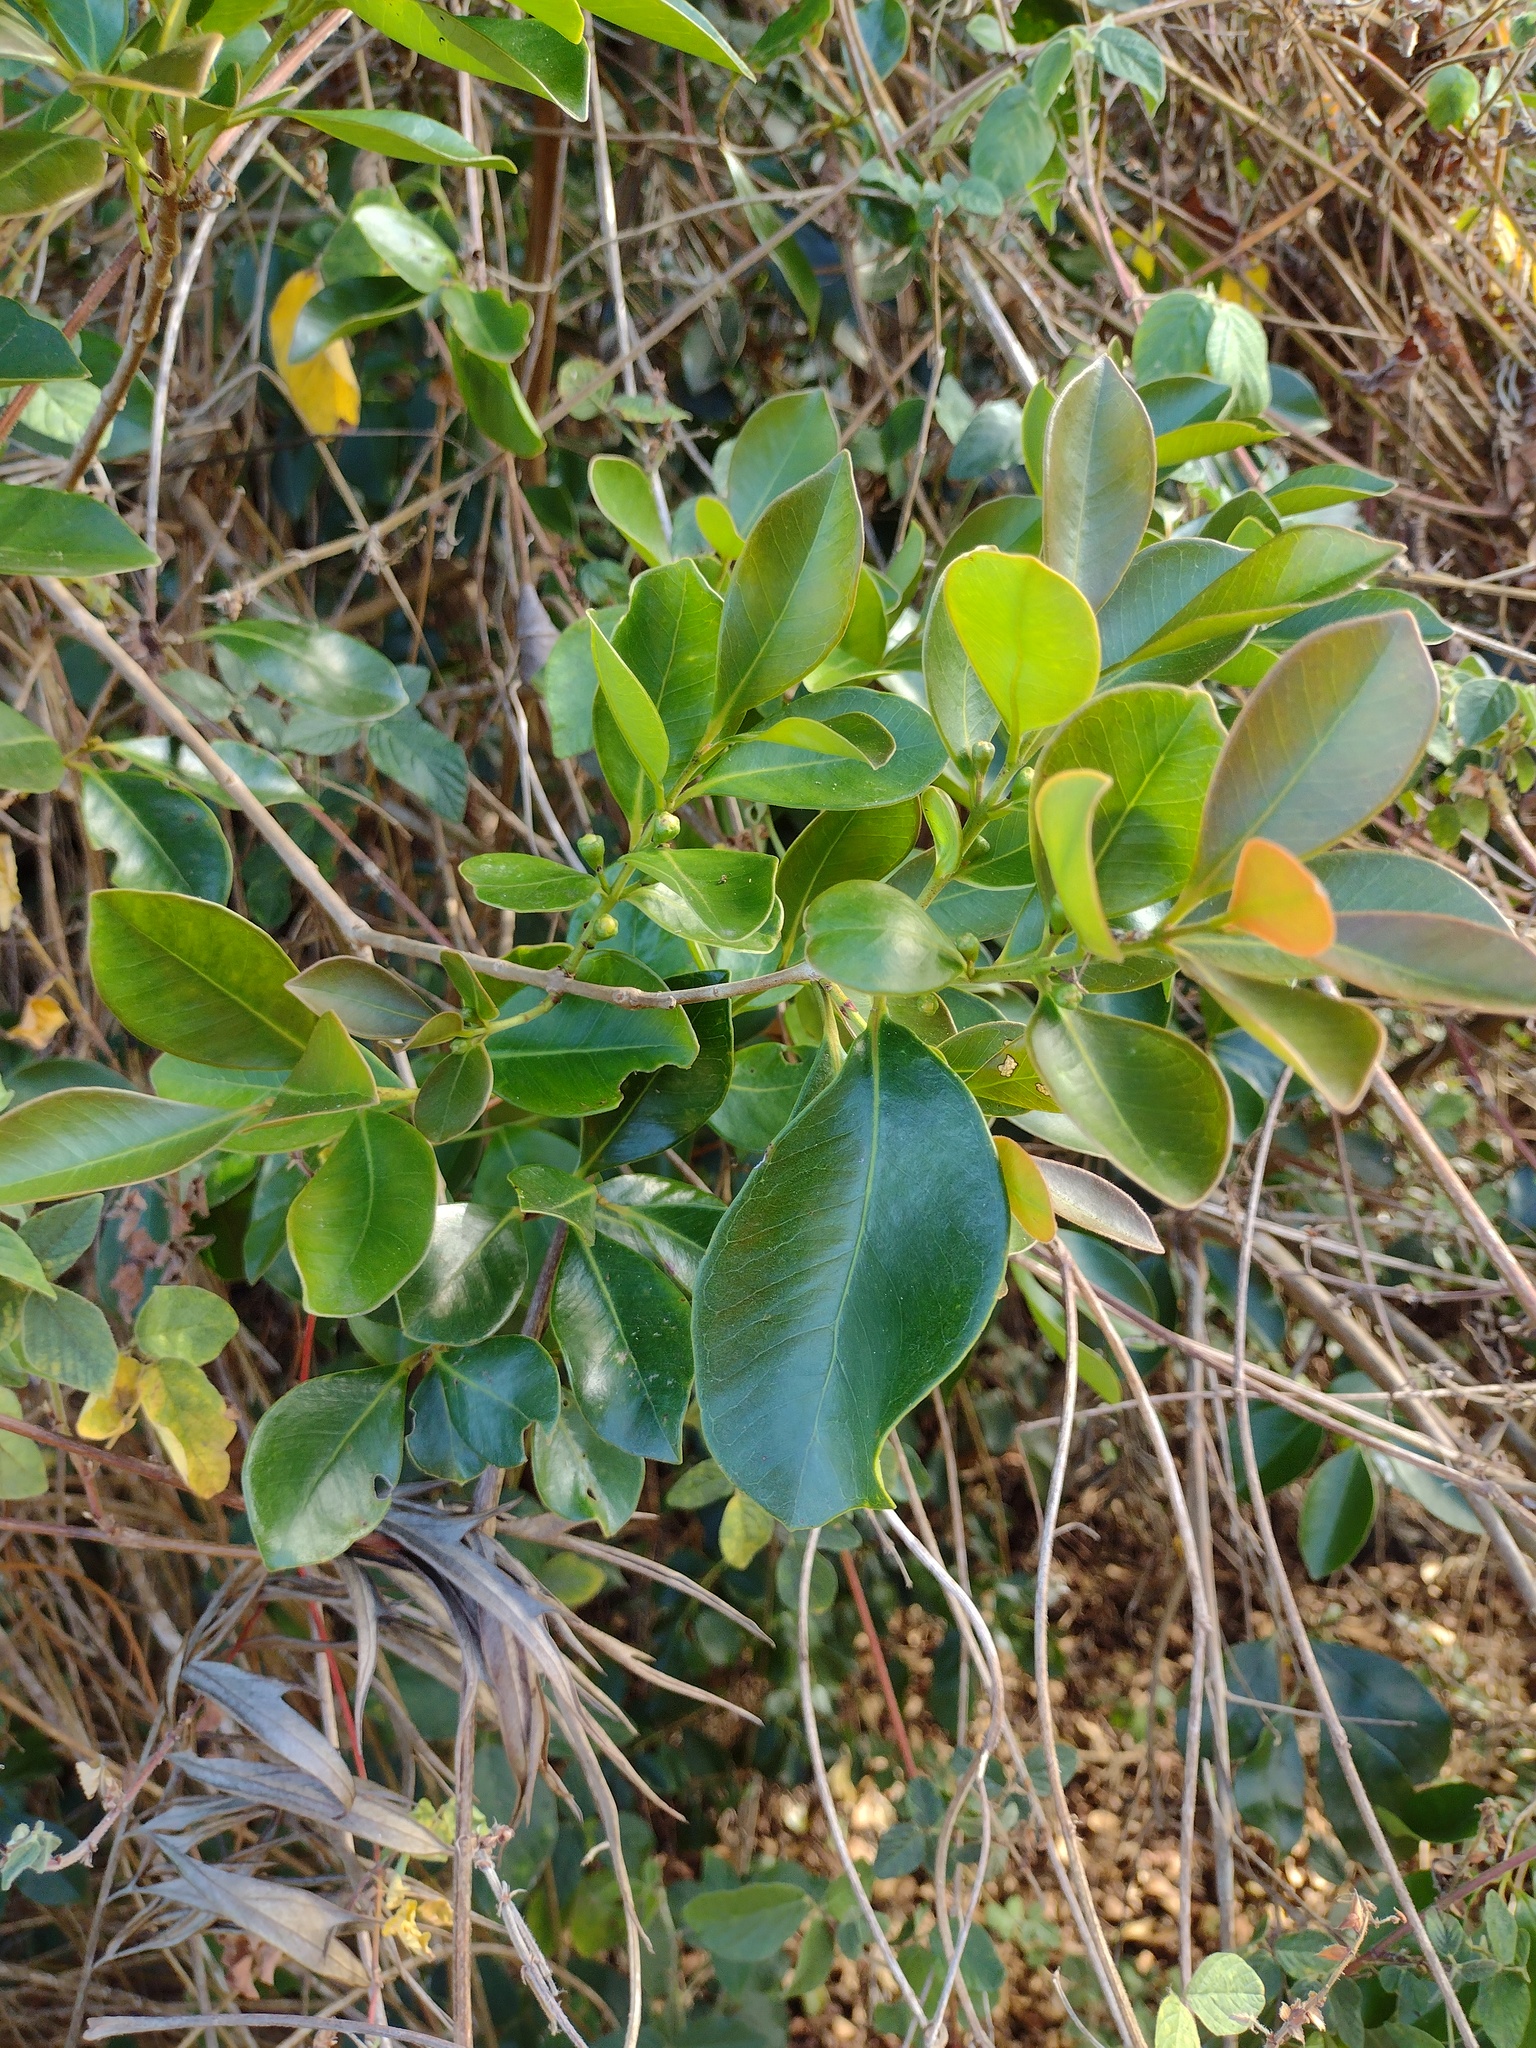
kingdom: Plantae
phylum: Tracheophyta
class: Magnoliopsida
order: Myrtales
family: Myrtaceae
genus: Psidium
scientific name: Psidium cattleianum
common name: Strawberry guava
